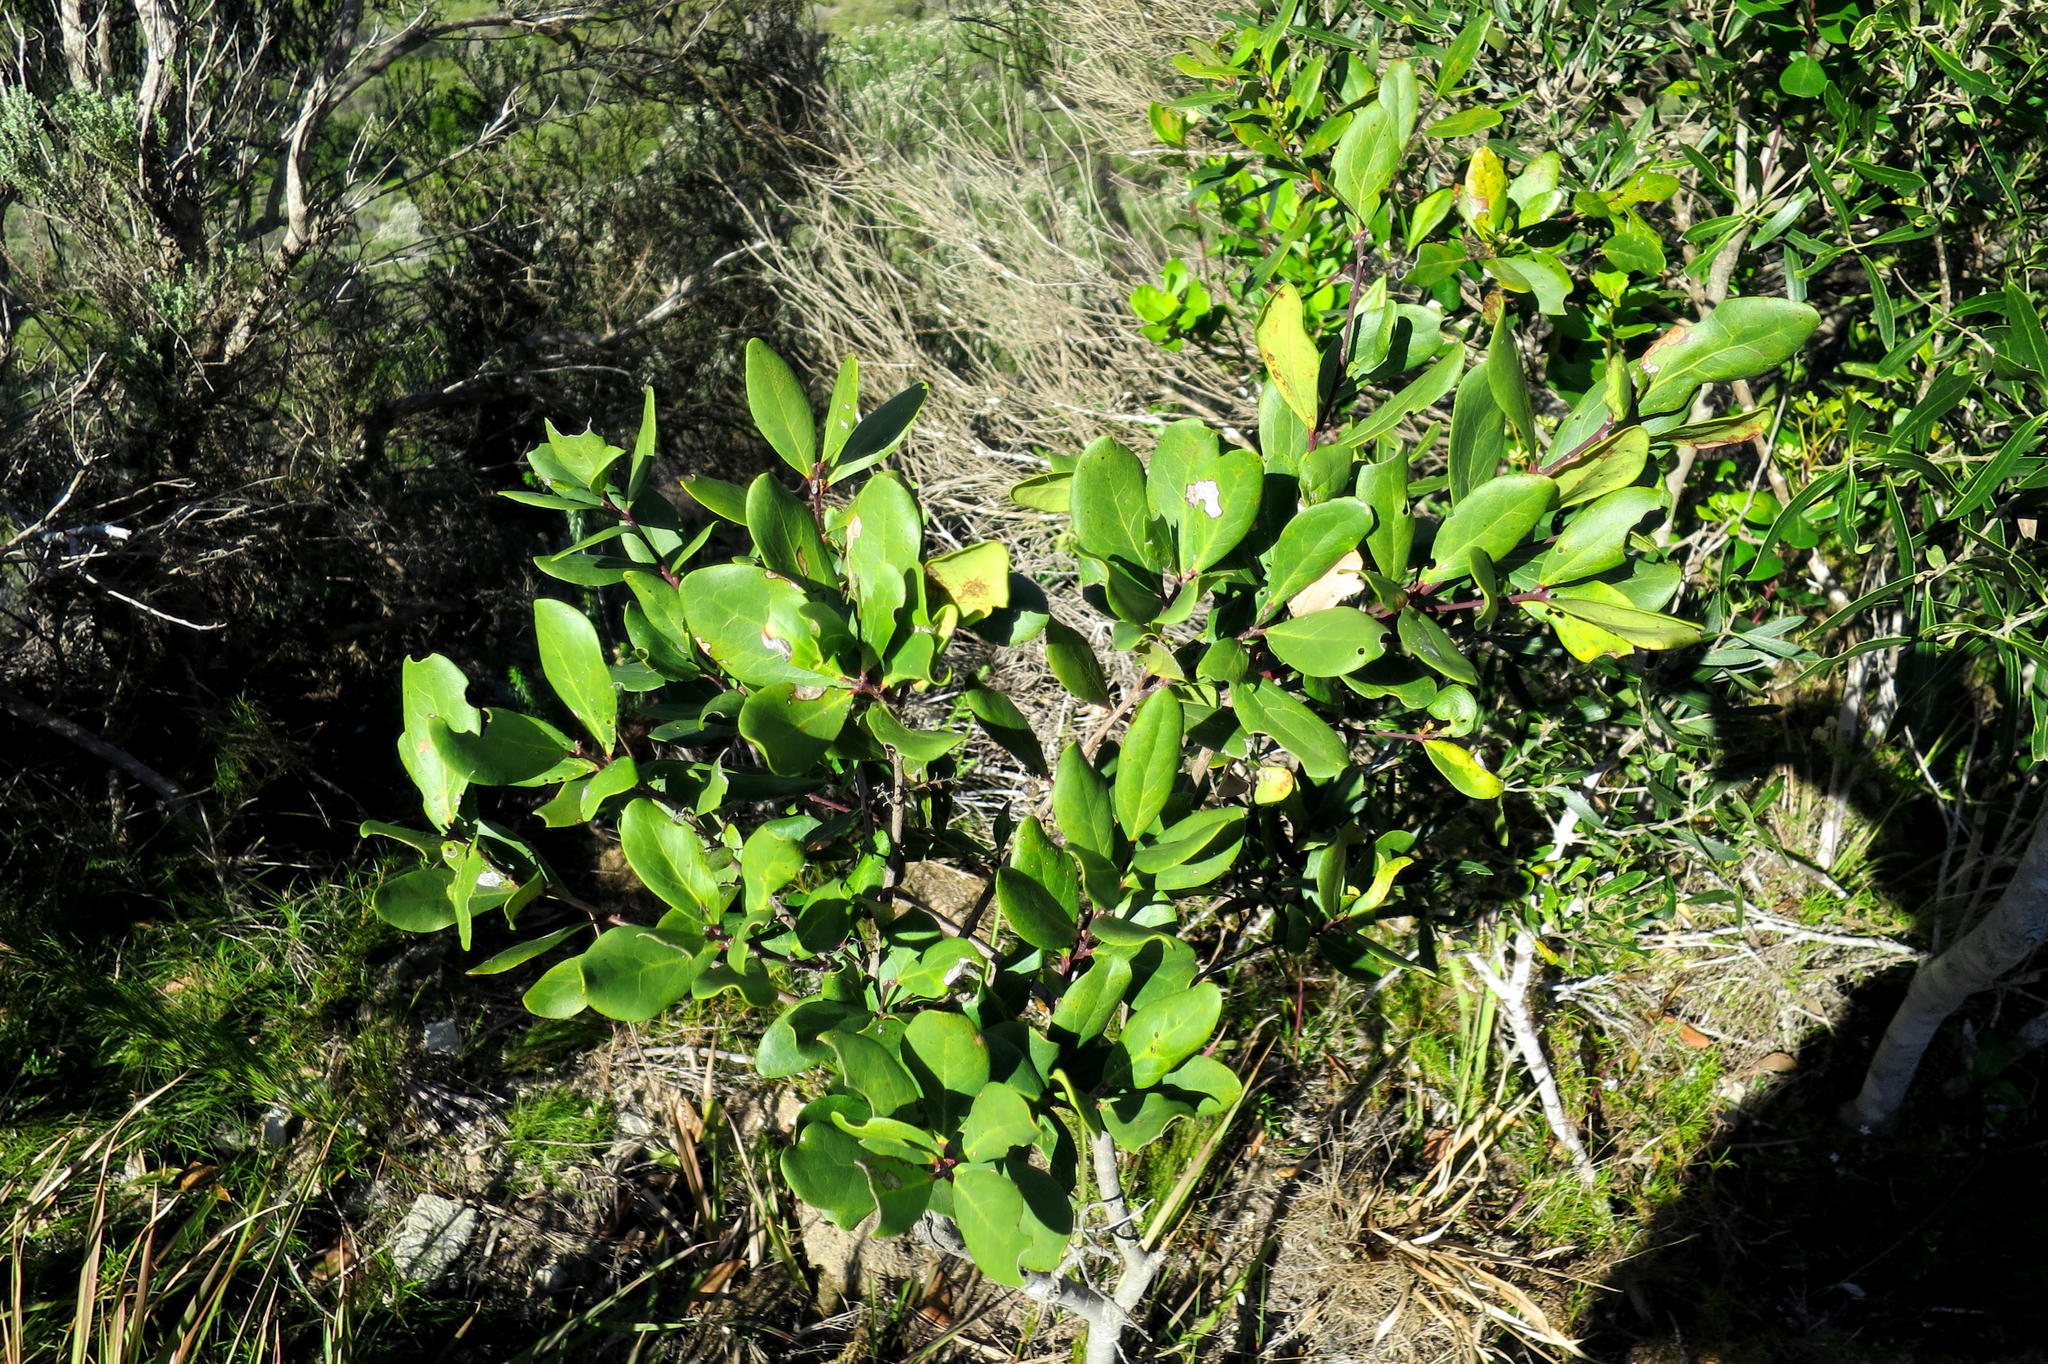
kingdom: Plantae
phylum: Tracheophyta
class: Magnoliopsida
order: Ericales
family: Ebenaceae
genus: Euclea
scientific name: Euclea racemosa
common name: Dune guarri
